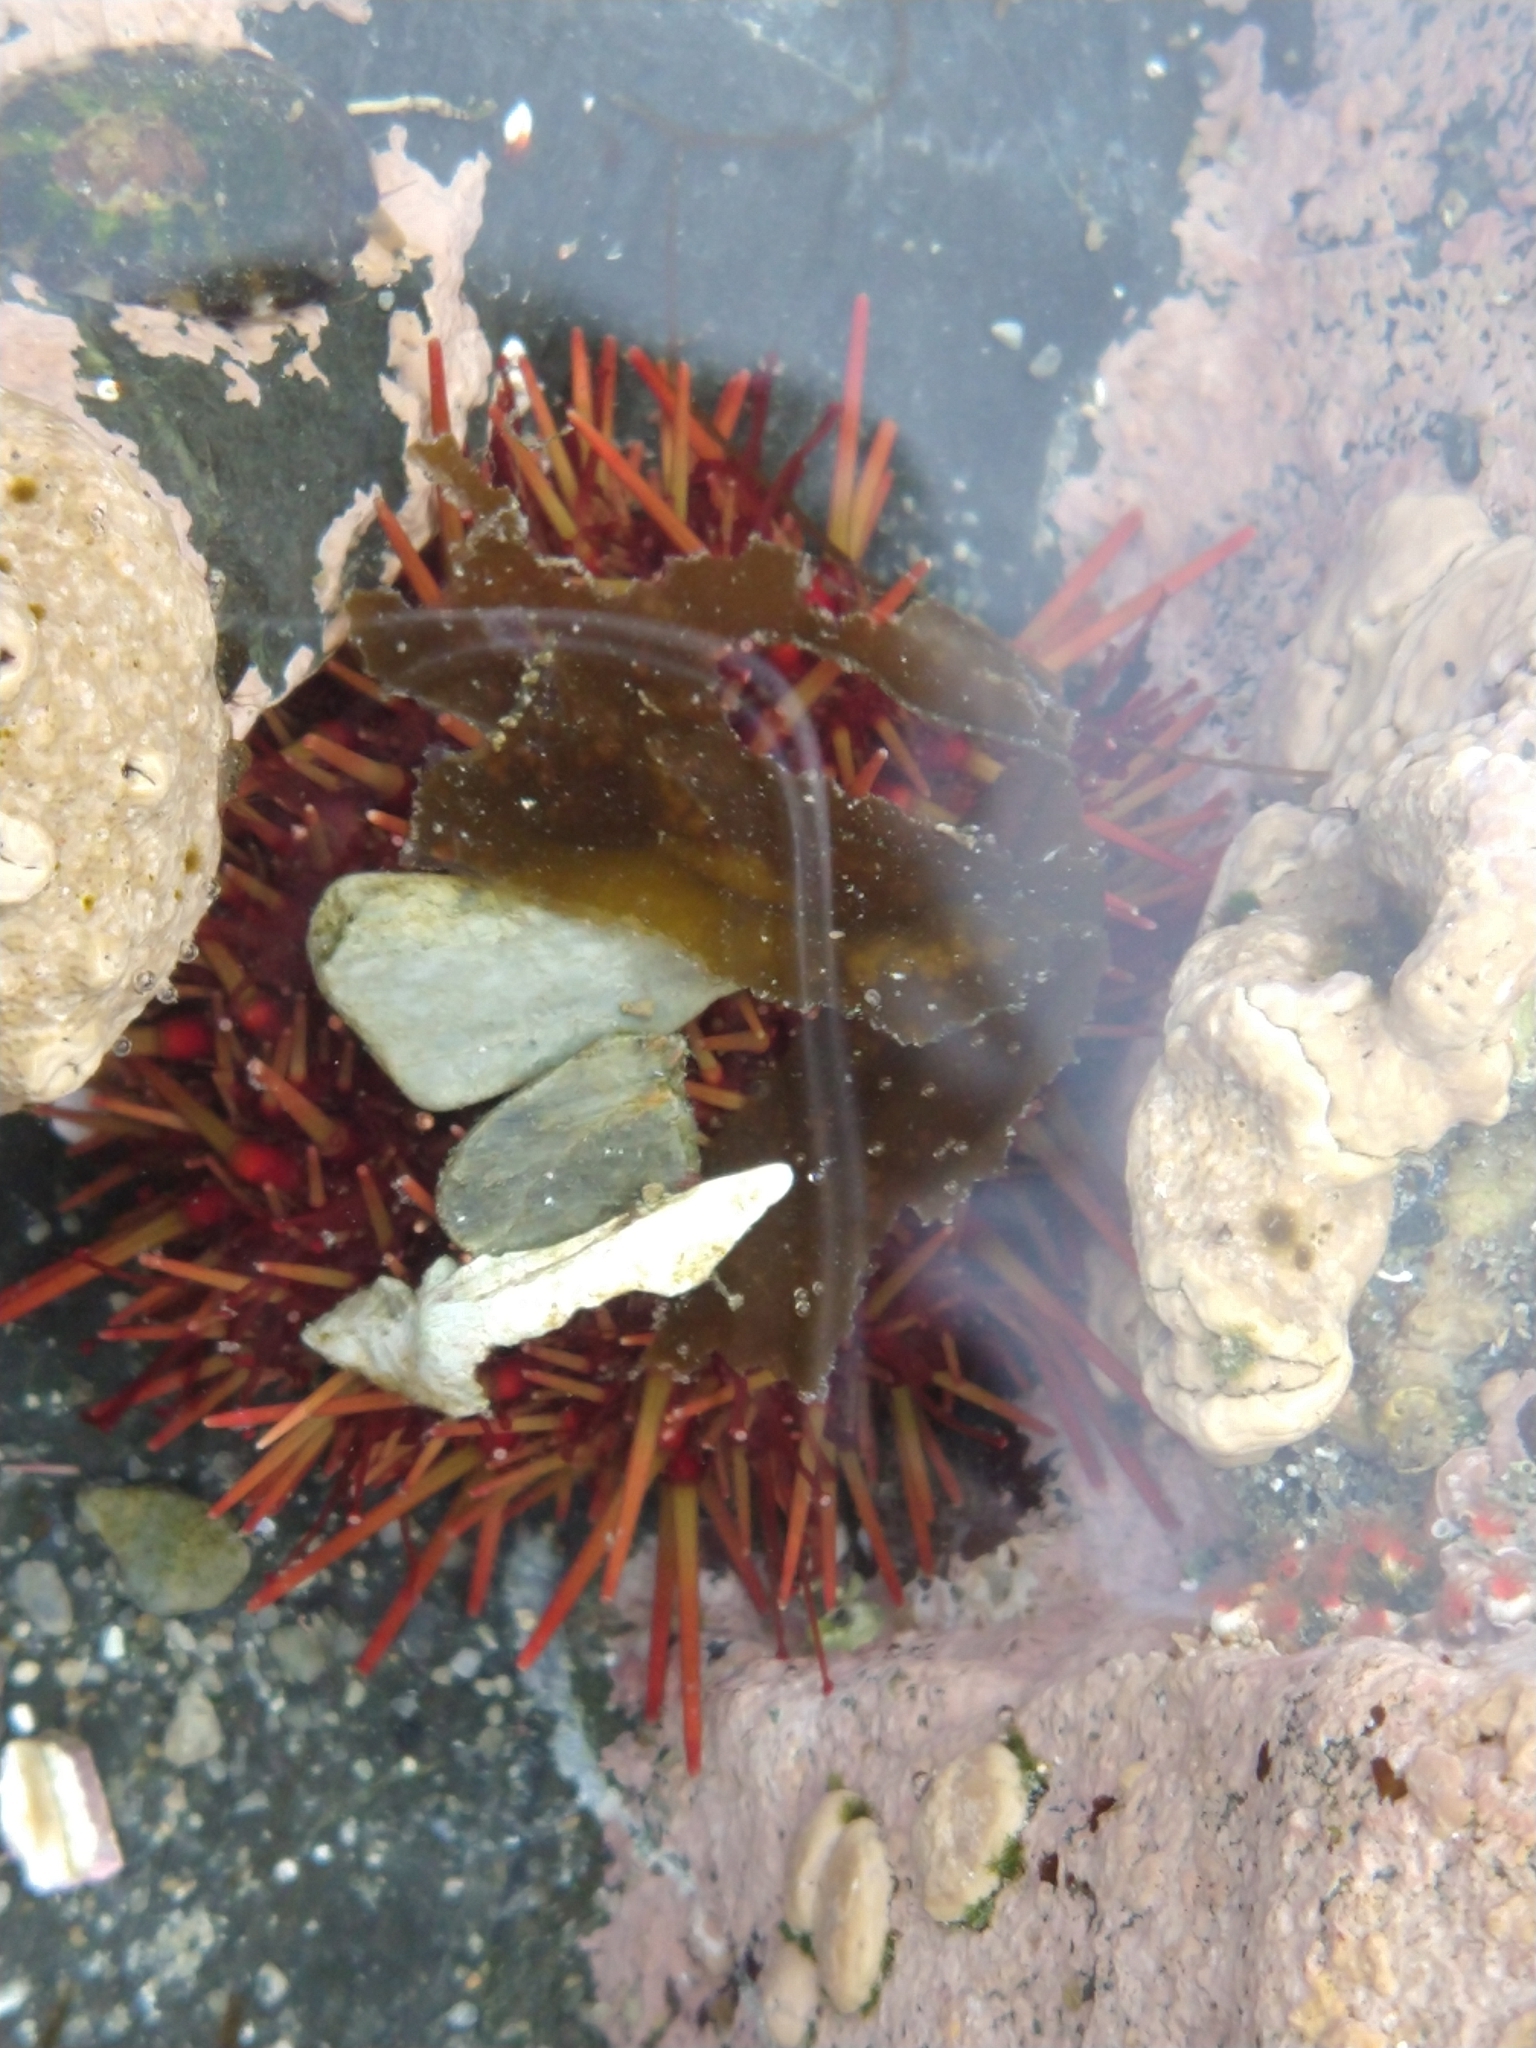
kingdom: Animalia
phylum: Echinodermata
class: Echinoidea
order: Camarodonta
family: Parechinidae
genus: Loxechinus
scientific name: Loxechinus albus
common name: Chilean sea urchin
